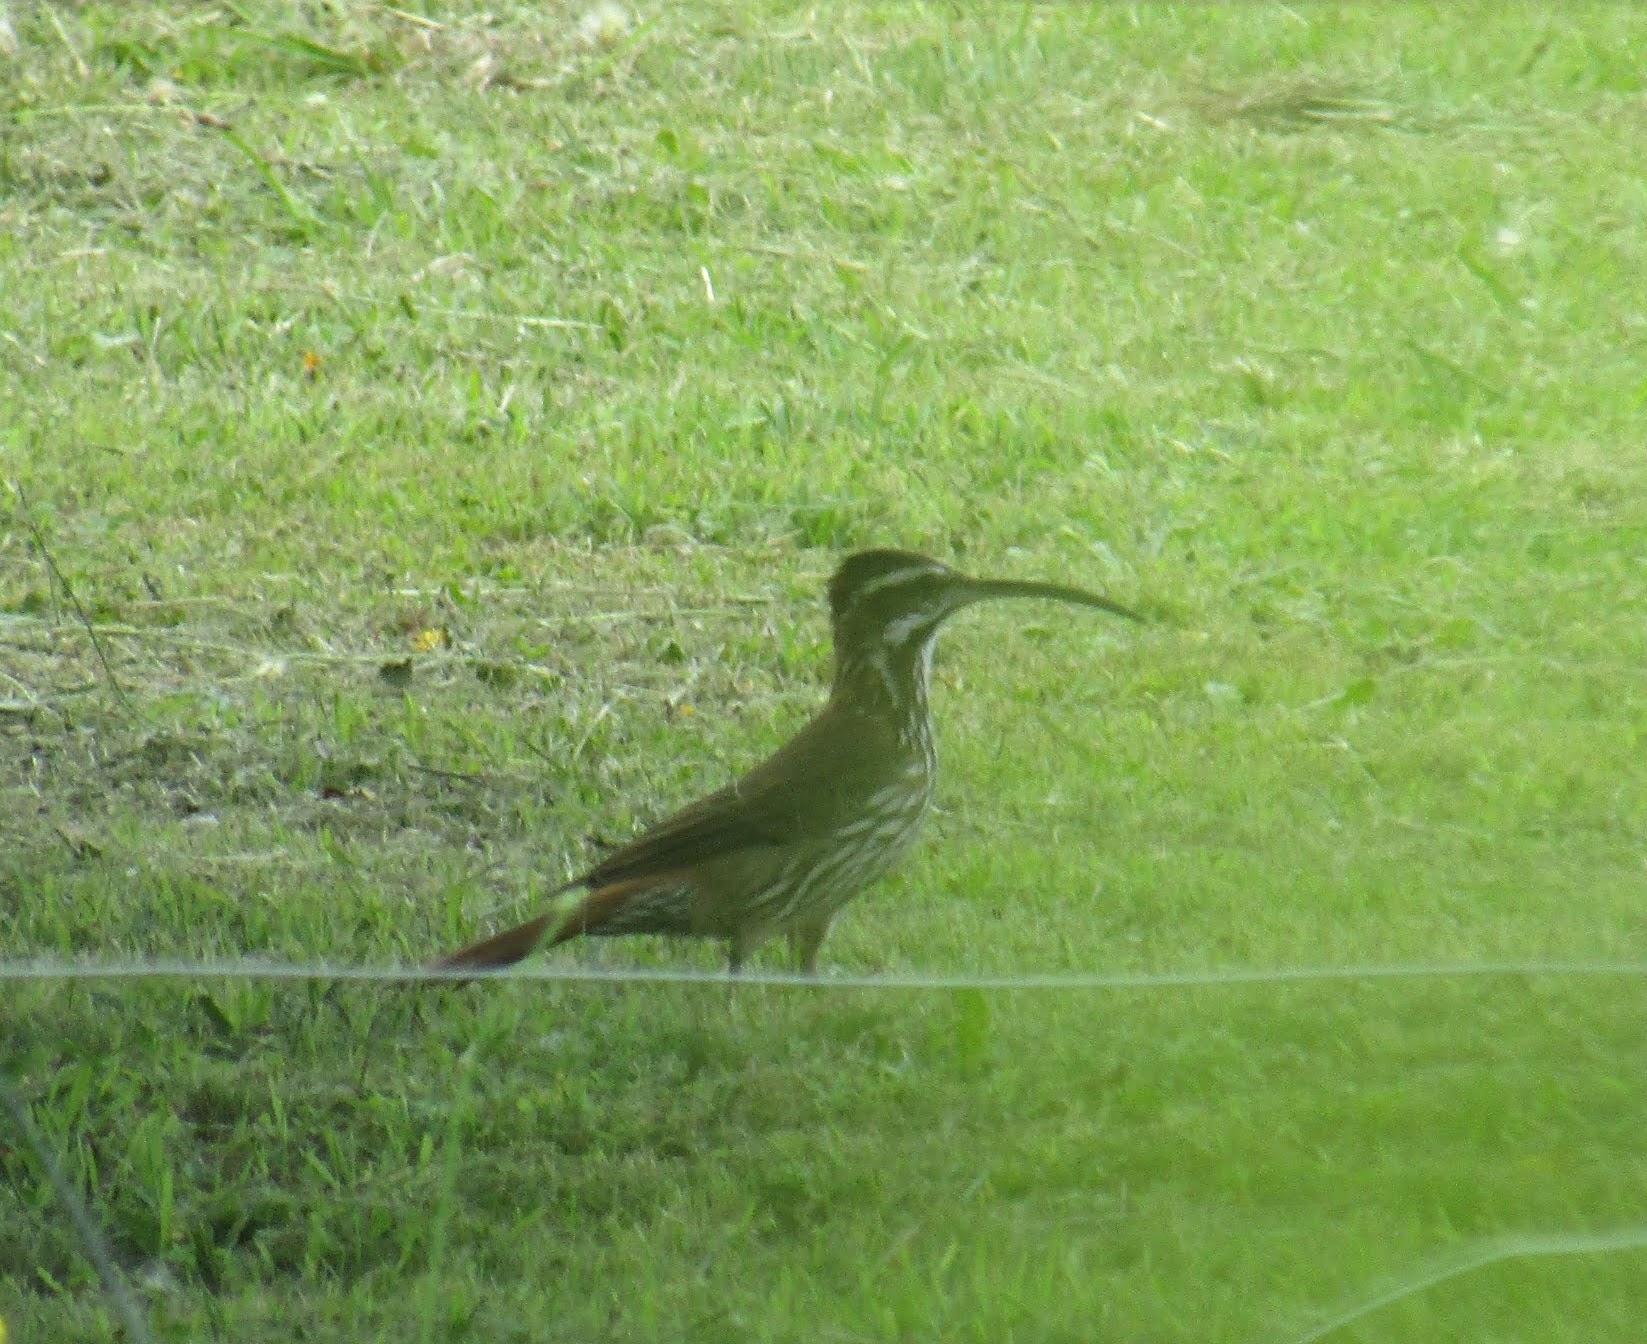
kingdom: Animalia
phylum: Chordata
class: Aves
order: Passeriformes
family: Furnariidae
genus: Drymornis
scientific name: Drymornis bridgesii
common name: Scimitar-billed woodcreeper
